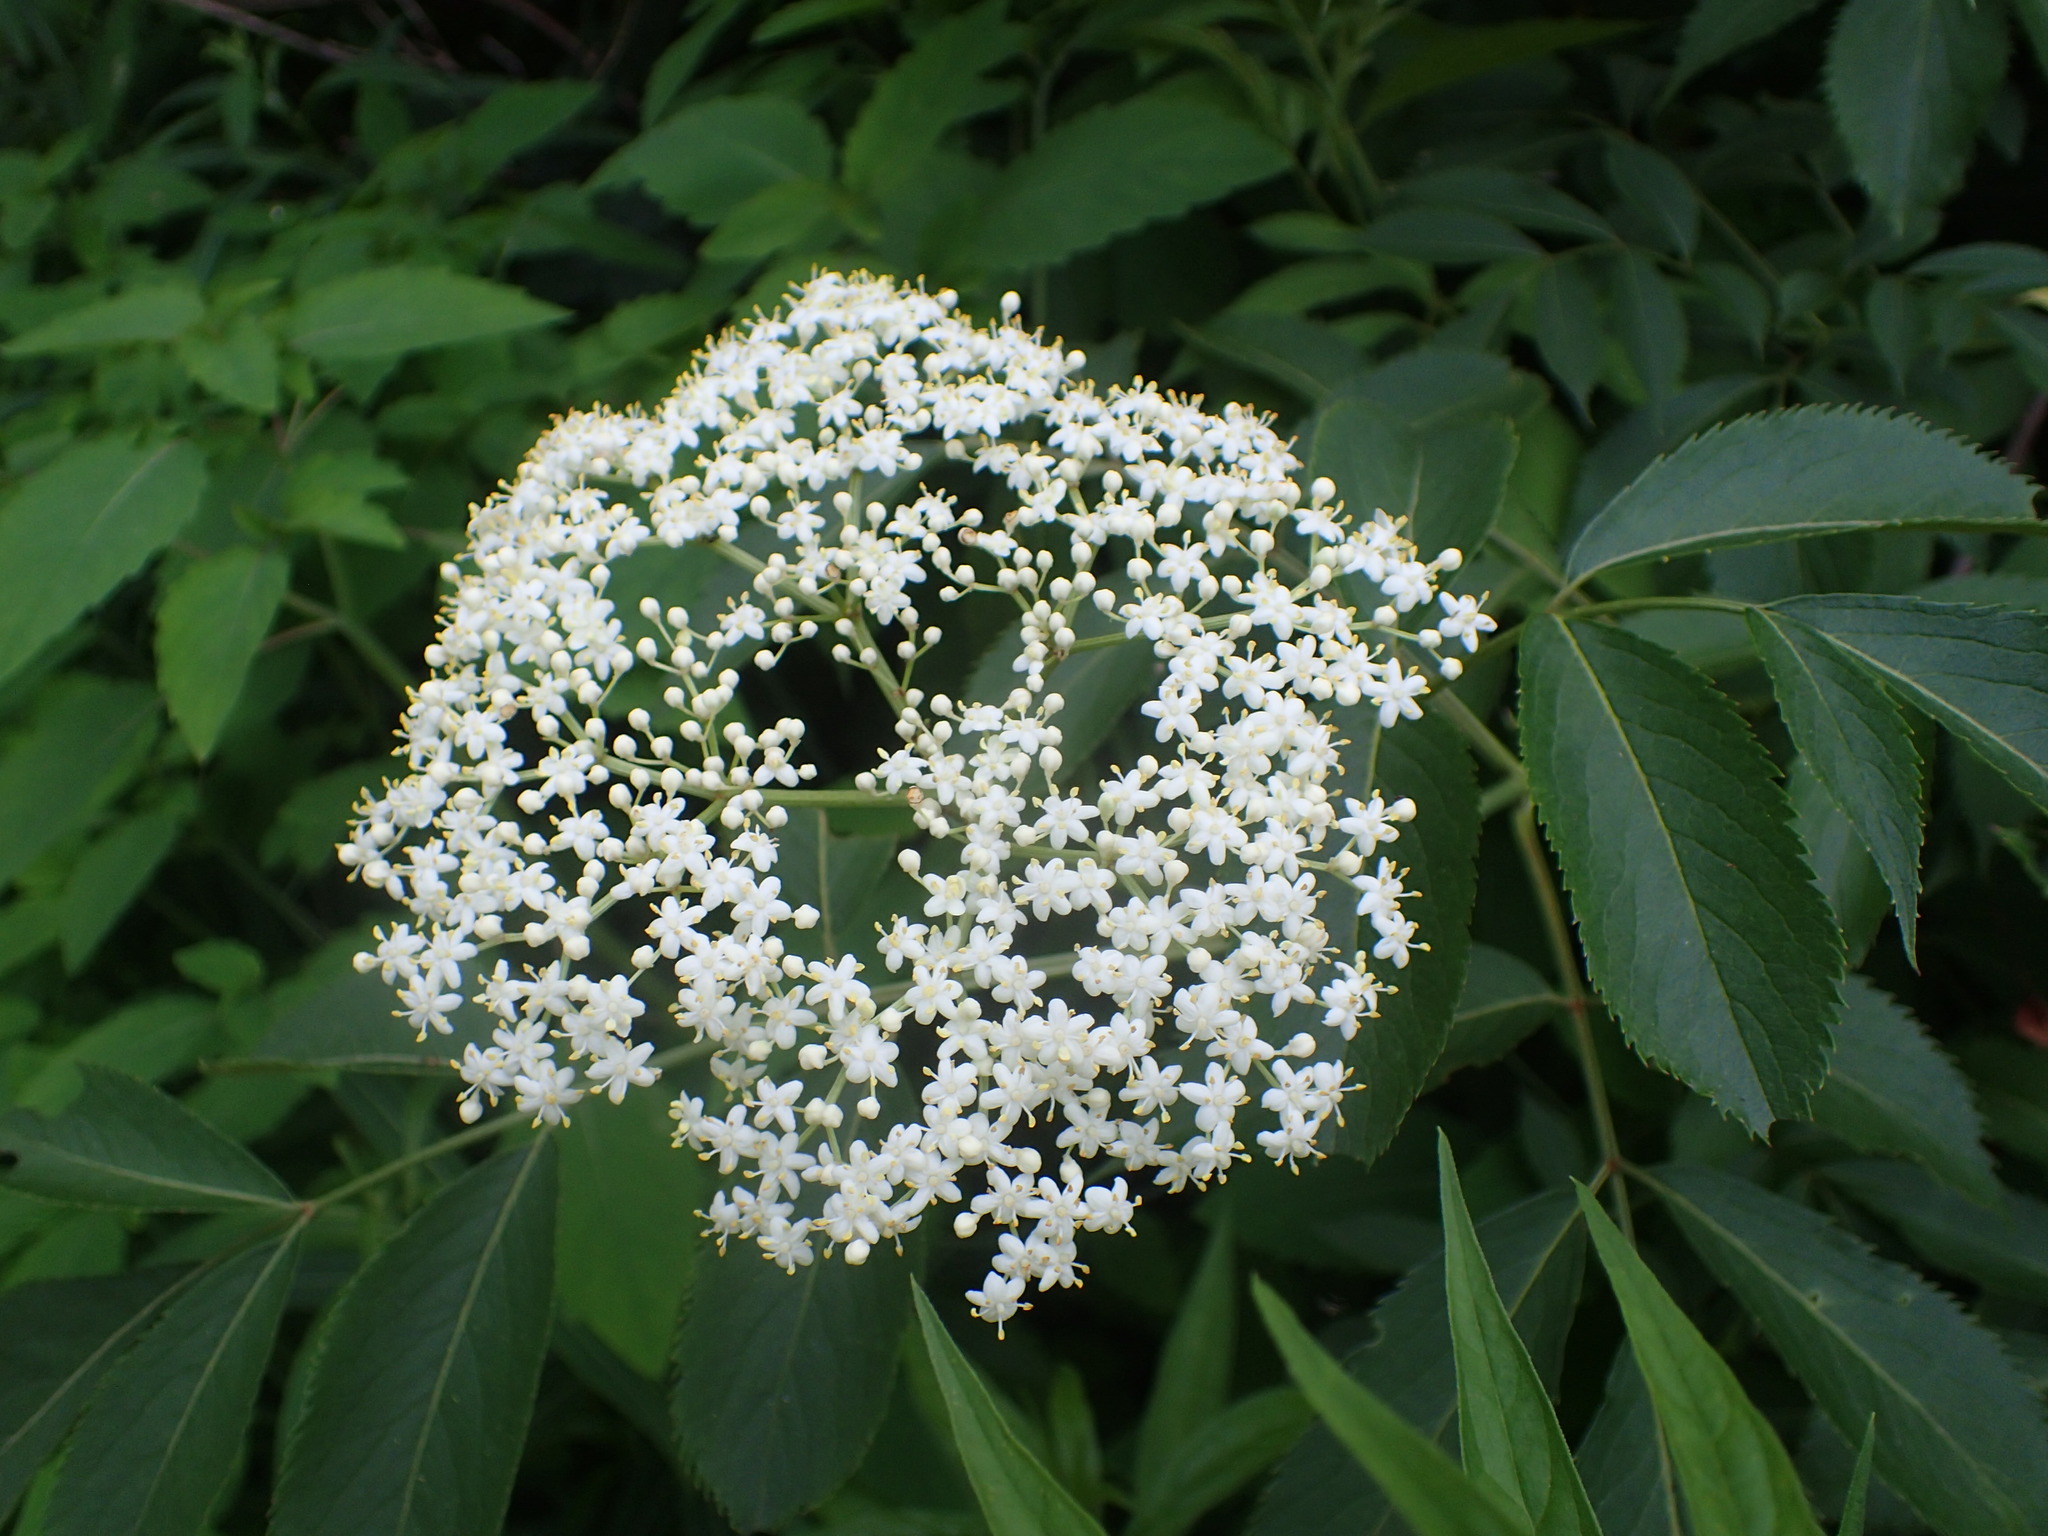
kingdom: Plantae
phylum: Tracheophyta
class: Magnoliopsida
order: Dipsacales
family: Viburnaceae
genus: Sambucus
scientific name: Sambucus canadensis
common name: American elder
